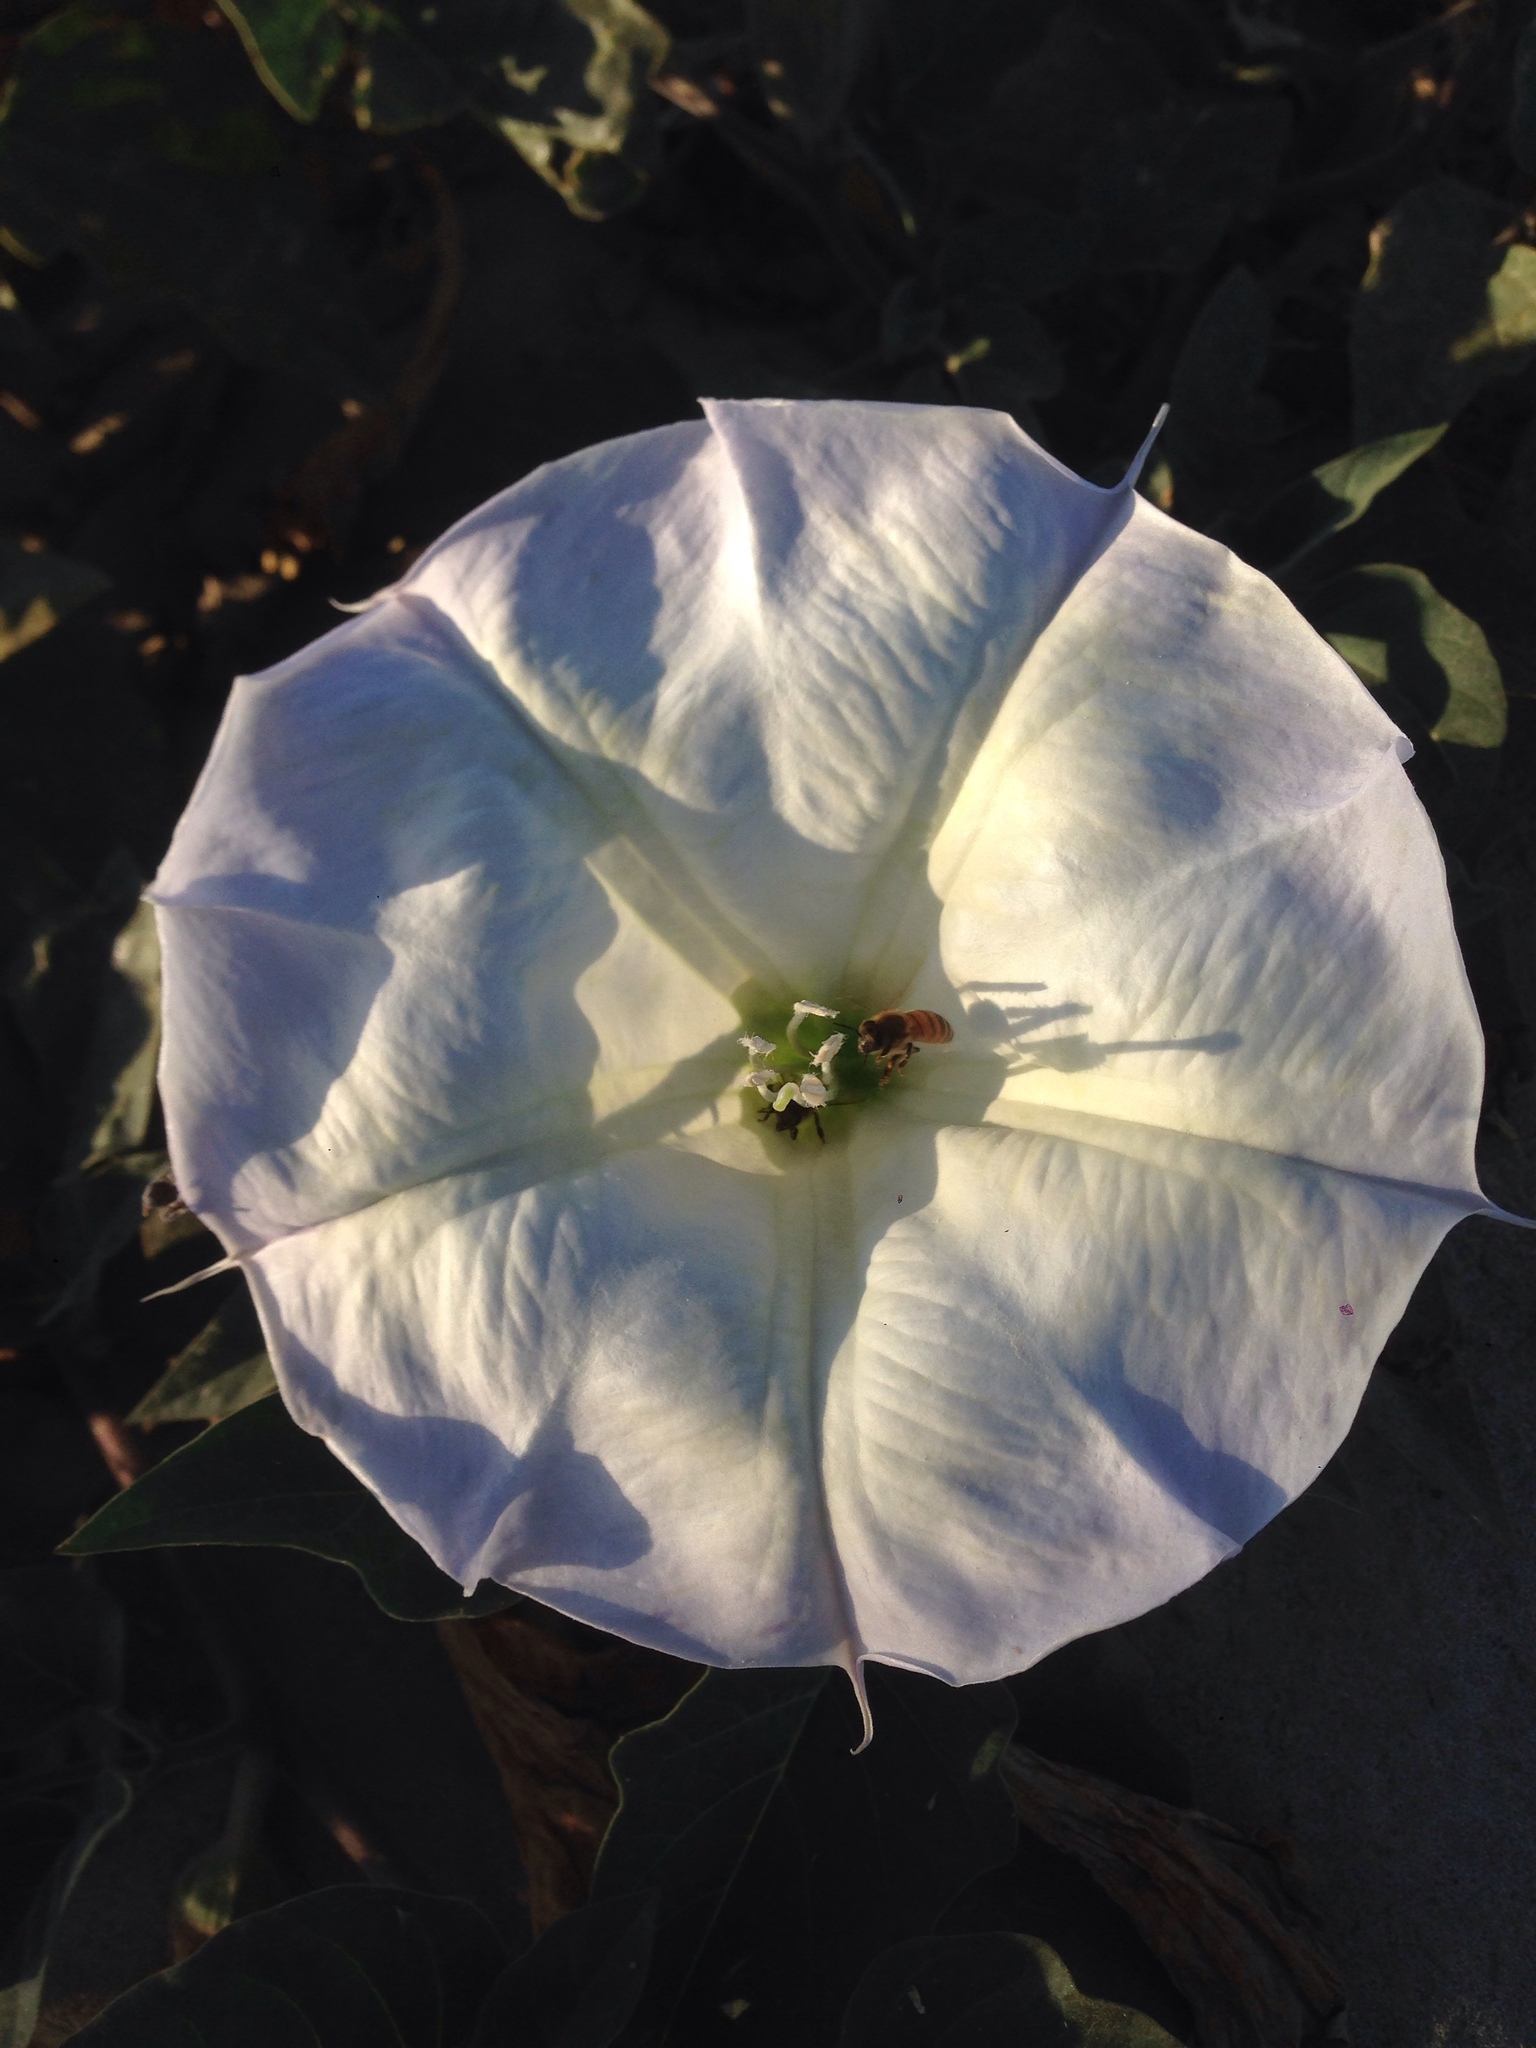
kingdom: Plantae
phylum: Tracheophyta
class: Magnoliopsida
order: Solanales
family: Solanaceae
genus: Datura
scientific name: Datura wrightii
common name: Sacred thorn-apple
